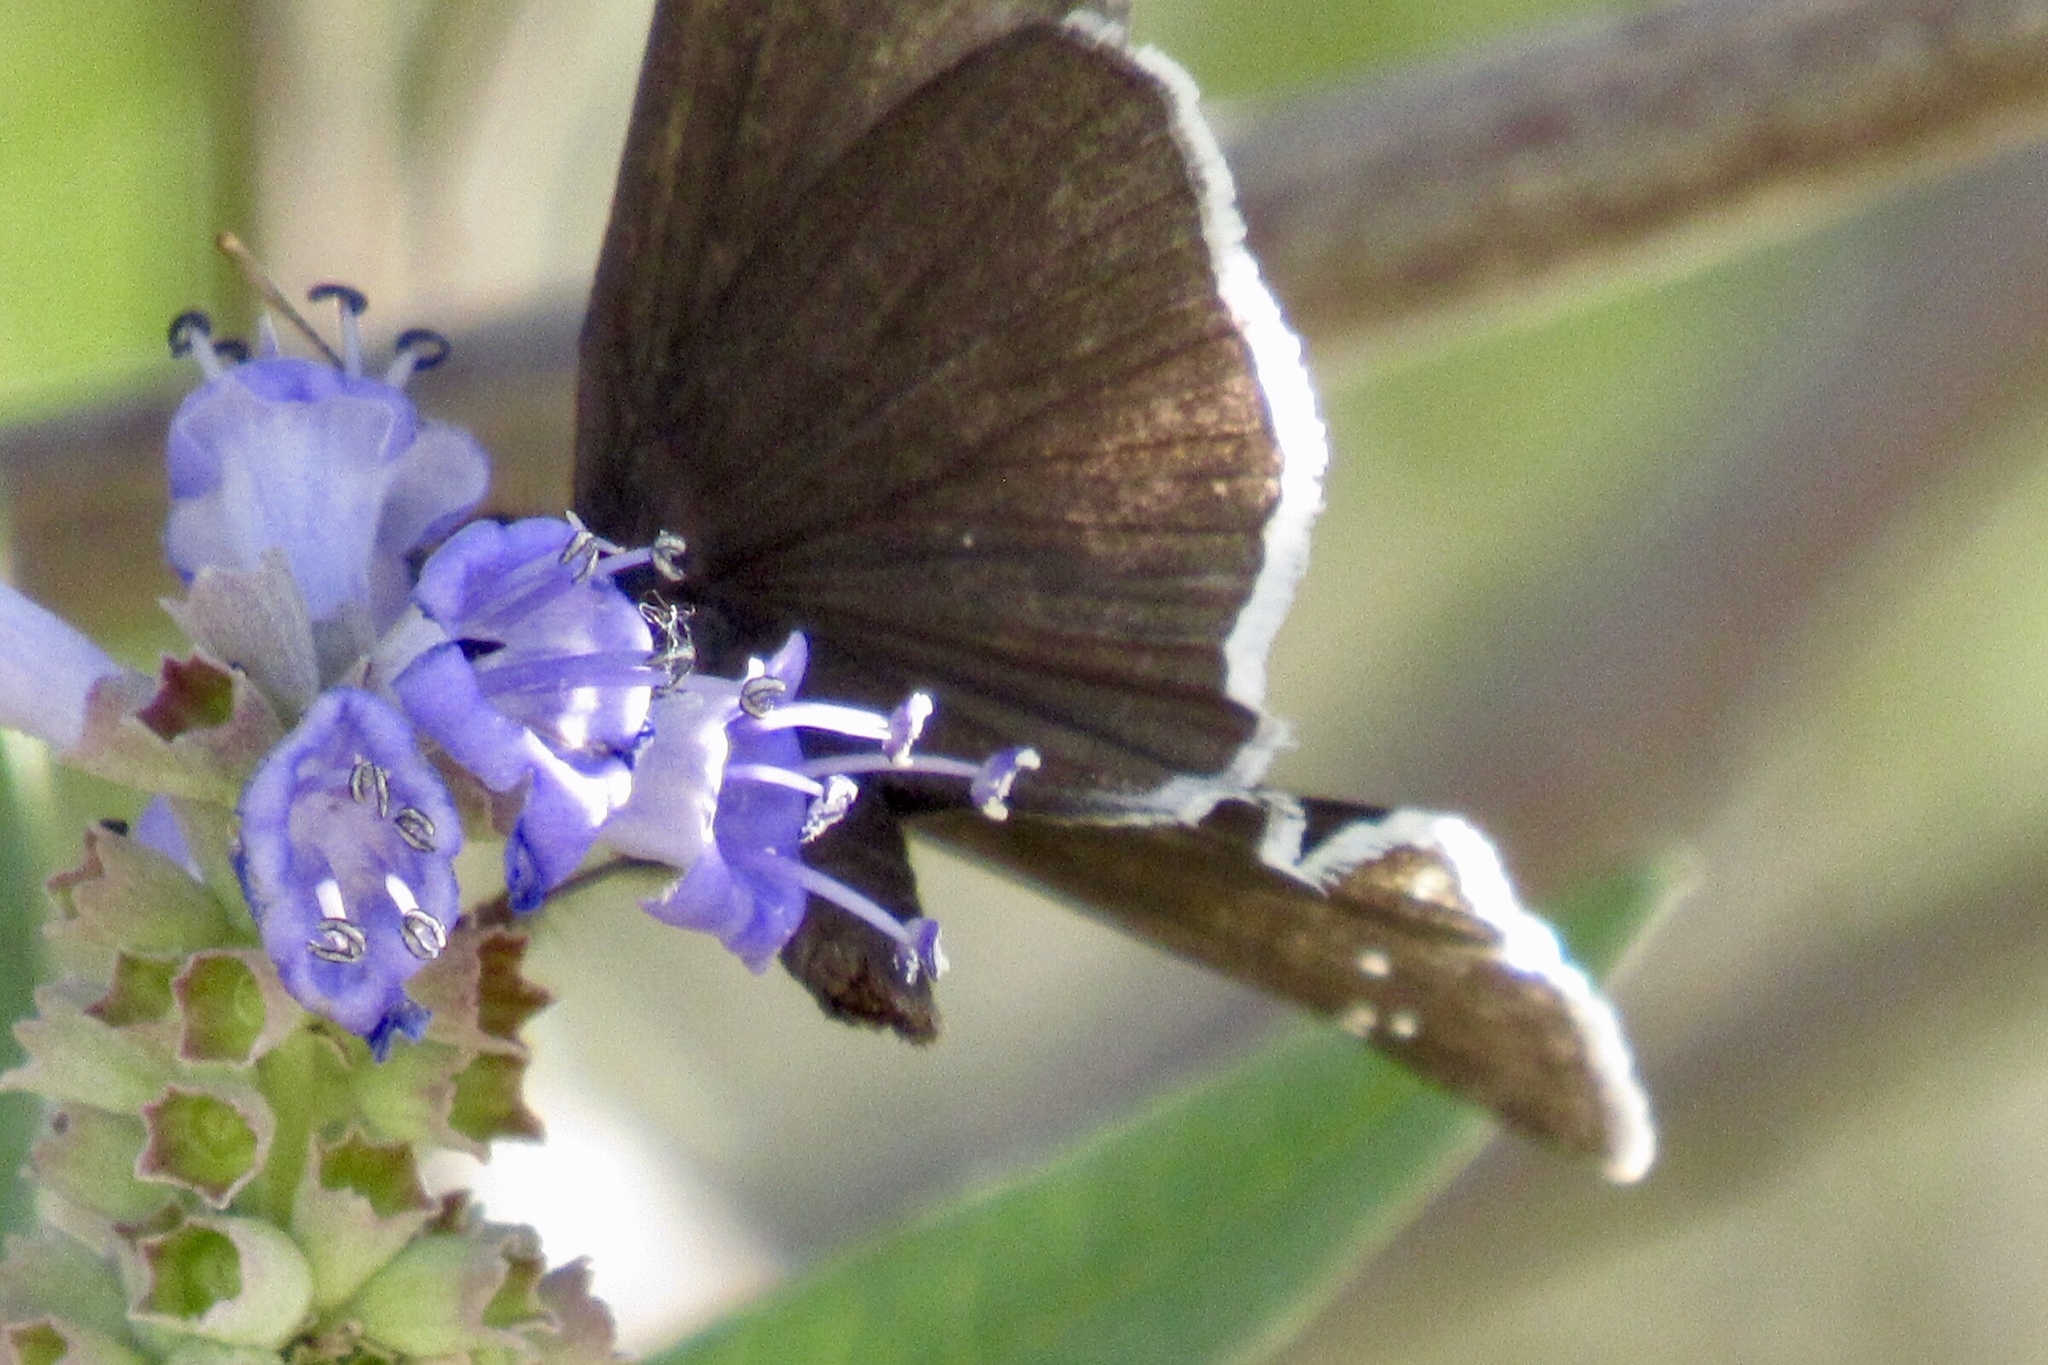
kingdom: Animalia
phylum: Arthropoda
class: Insecta
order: Lepidoptera
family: Hesperiidae
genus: Erynnis
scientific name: Erynnis funeralis
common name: Funereal duskywing
